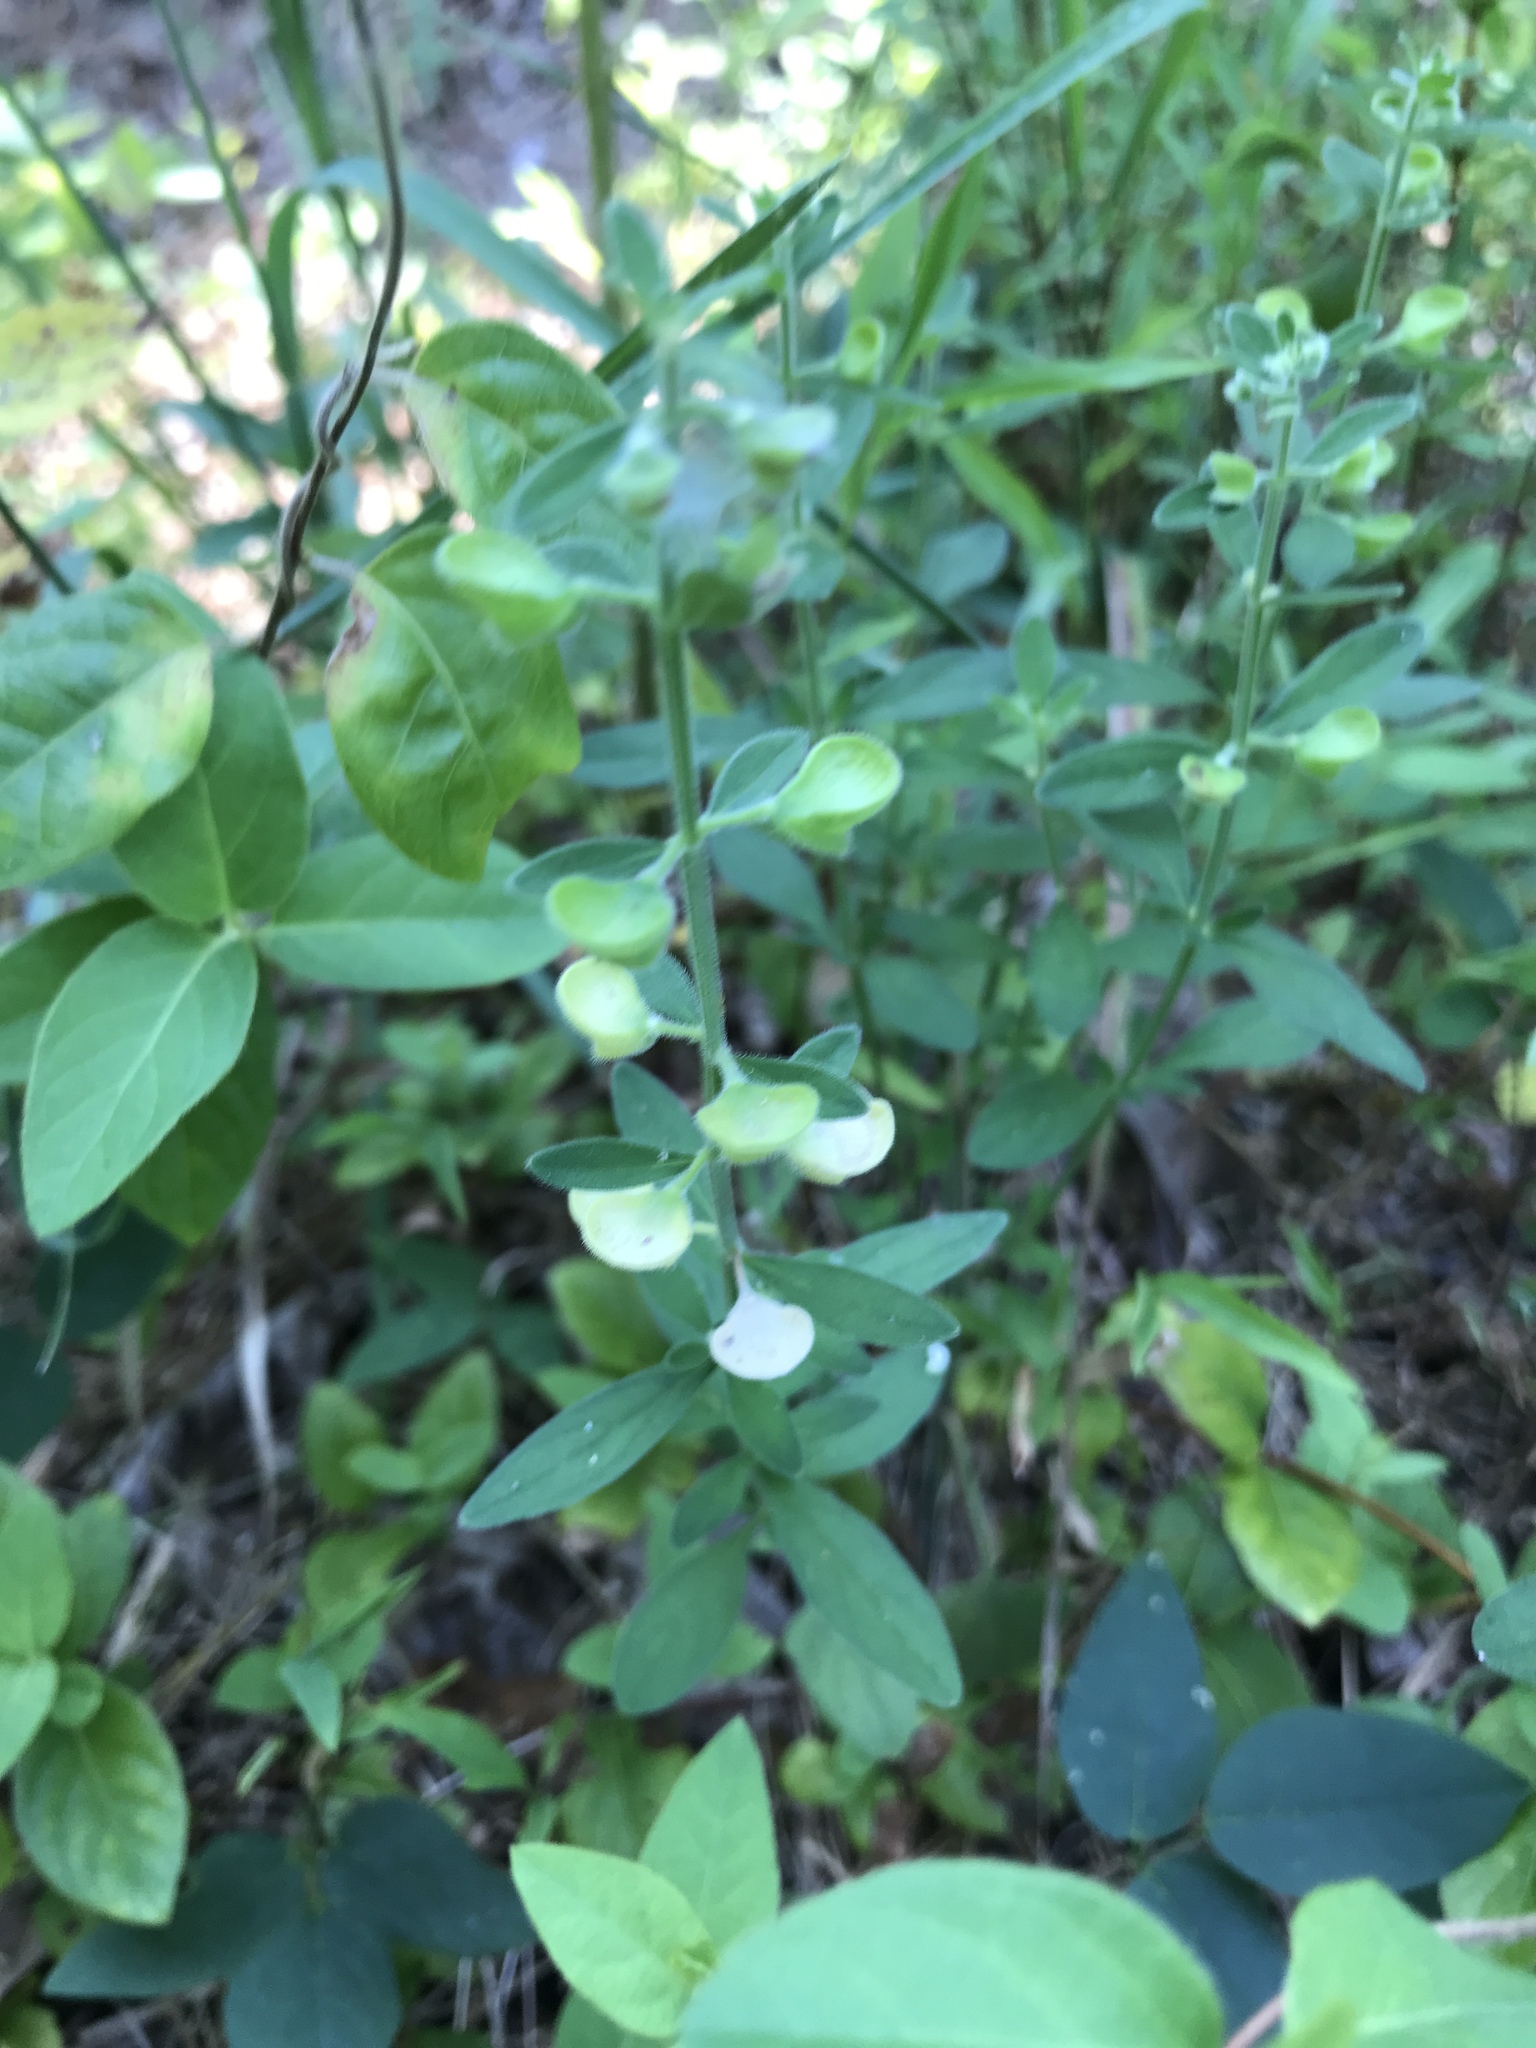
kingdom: Plantae
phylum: Tracheophyta
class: Magnoliopsida
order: Lamiales
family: Lamiaceae
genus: Scutellaria
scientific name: Scutellaria integrifolia
